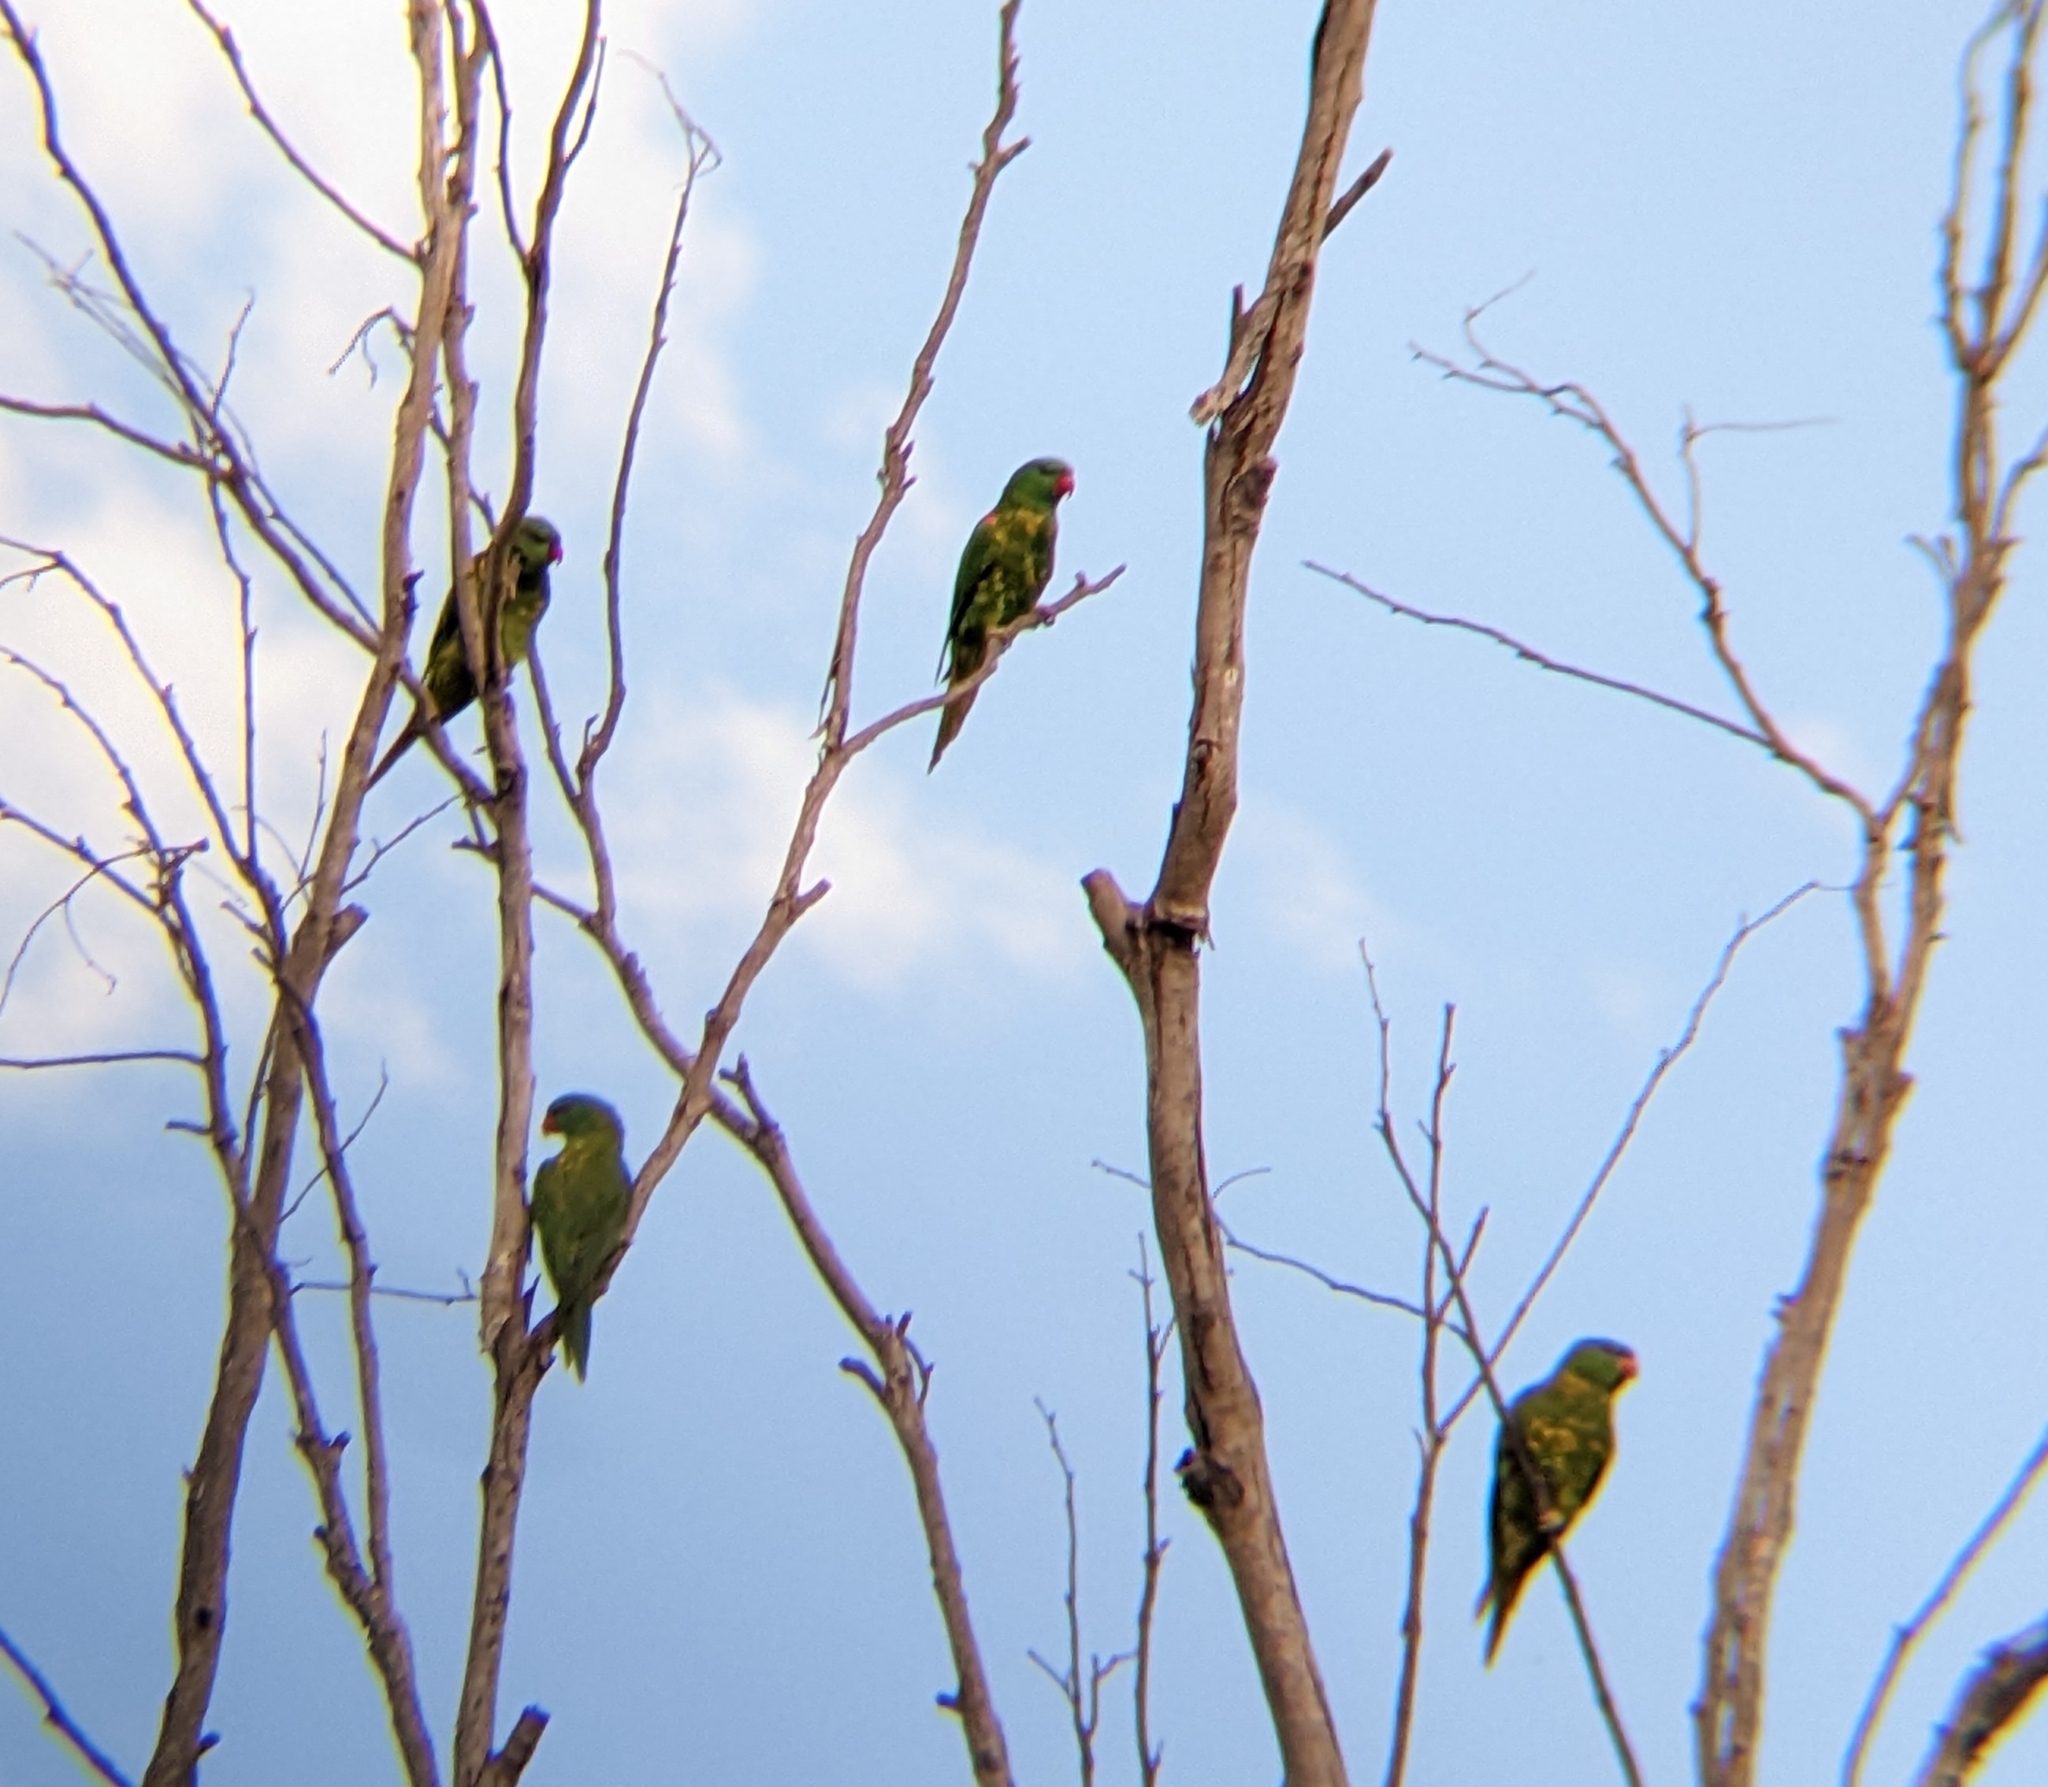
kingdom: Animalia
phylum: Chordata
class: Aves
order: Psittaciformes
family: Psittacidae
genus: Trichoglossus
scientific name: Trichoglossus chlorolepidotus
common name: Scaly-breasted lorikeet
